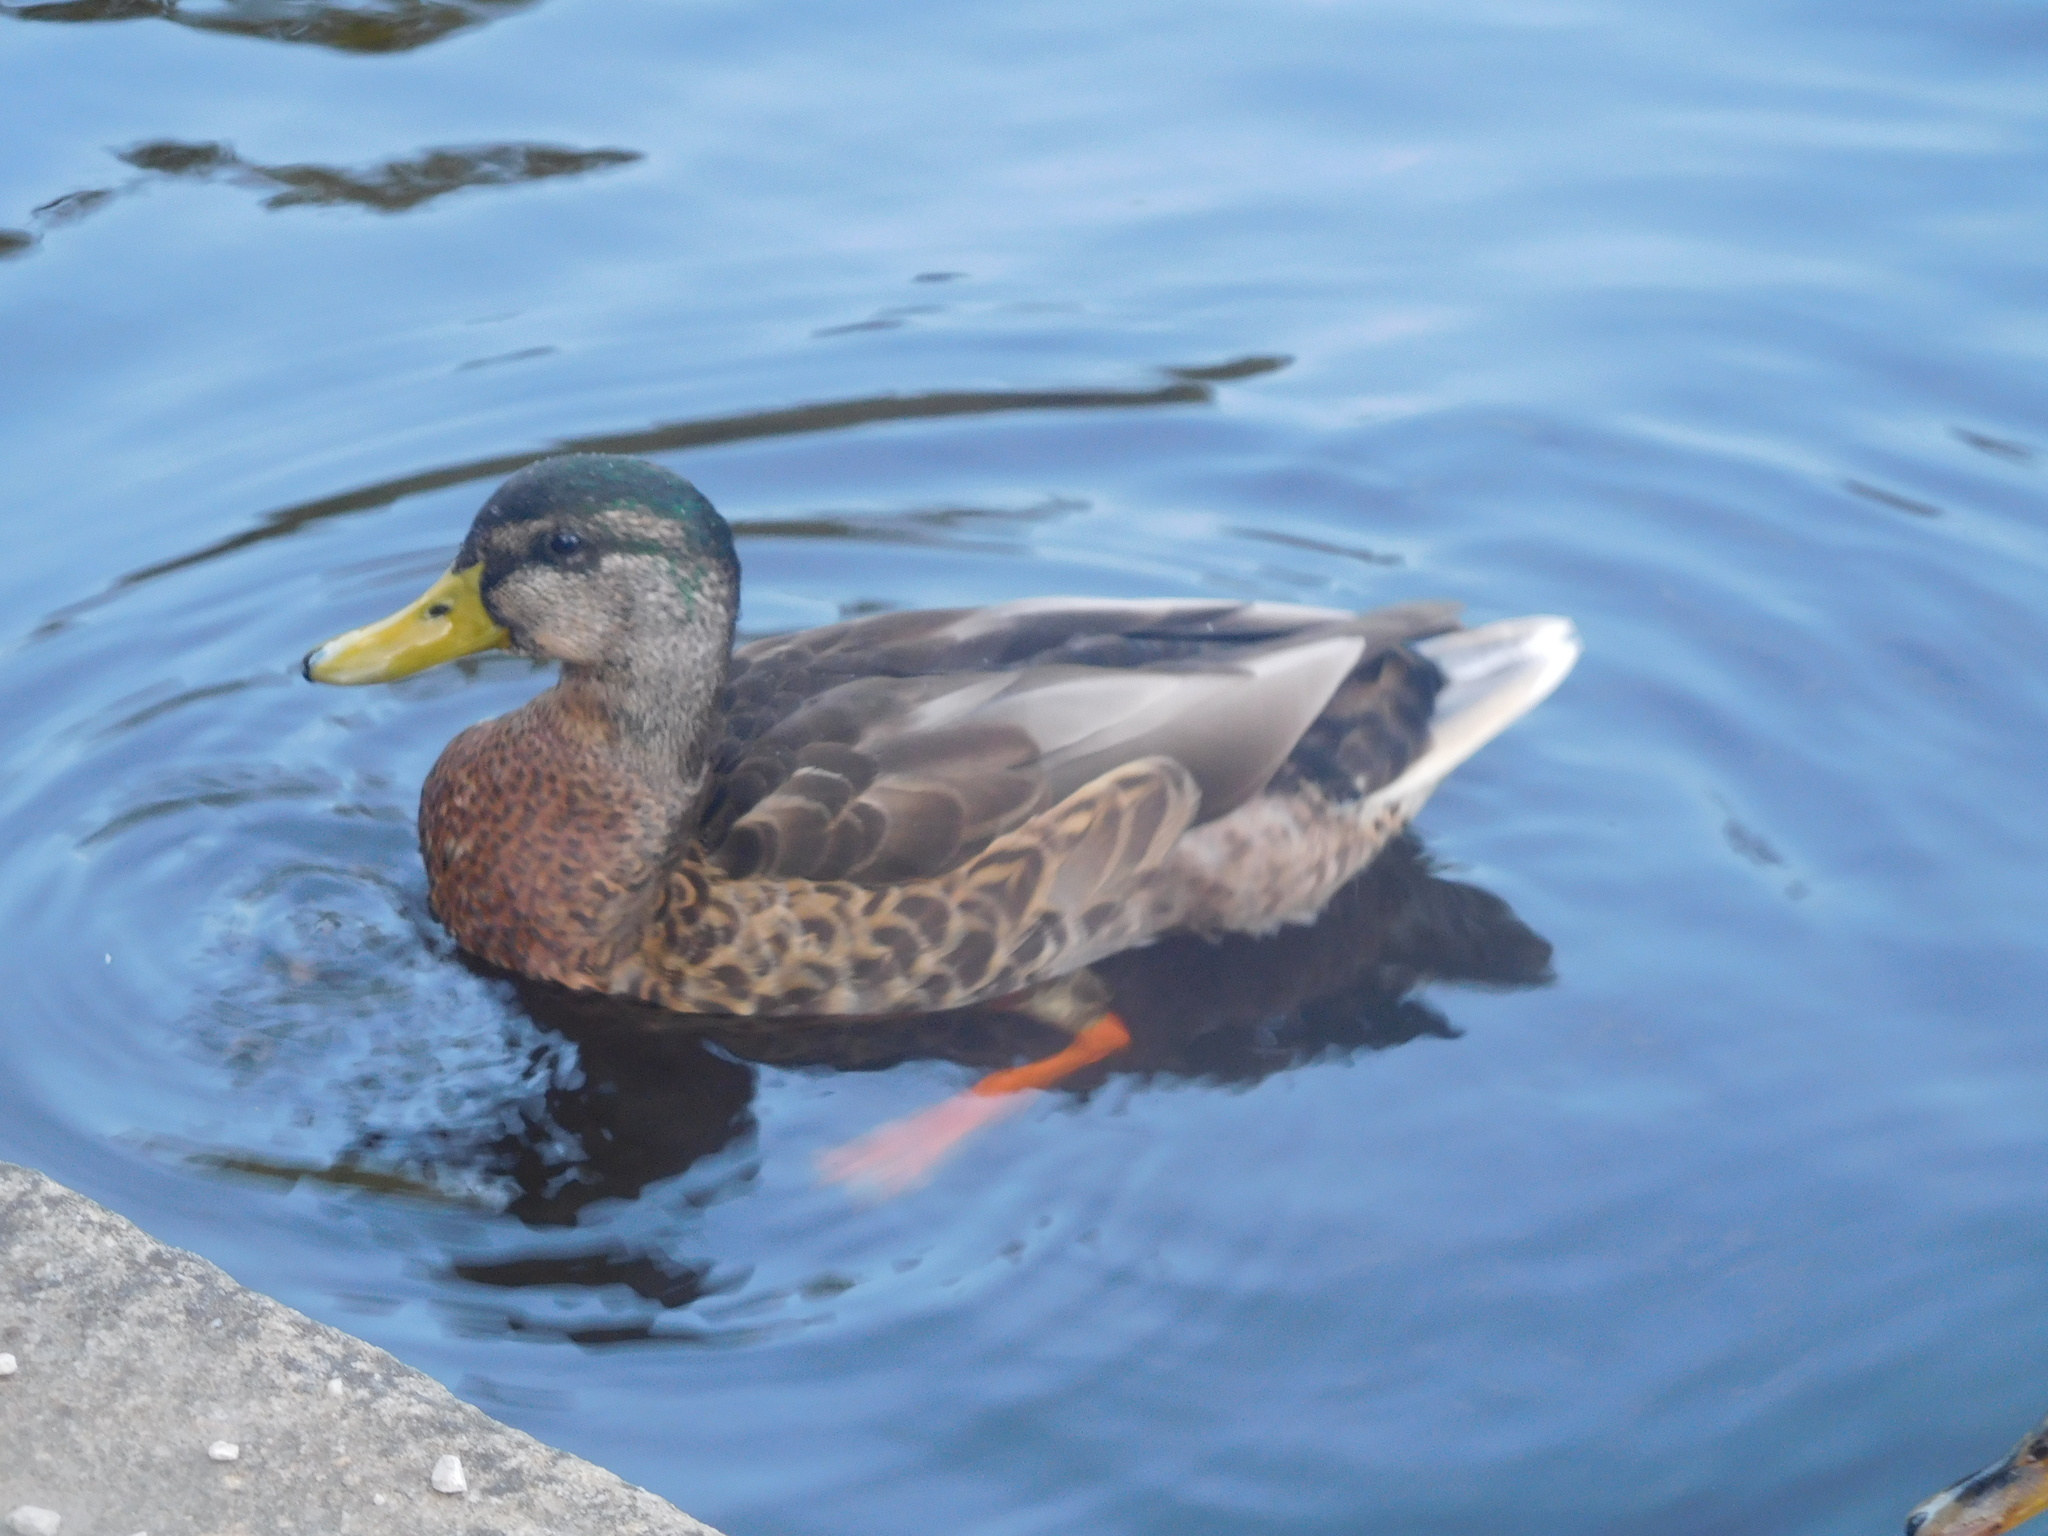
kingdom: Animalia
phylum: Chordata
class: Aves
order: Anseriformes
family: Anatidae
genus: Anas
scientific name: Anas platyrhynchos
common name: Mallard
